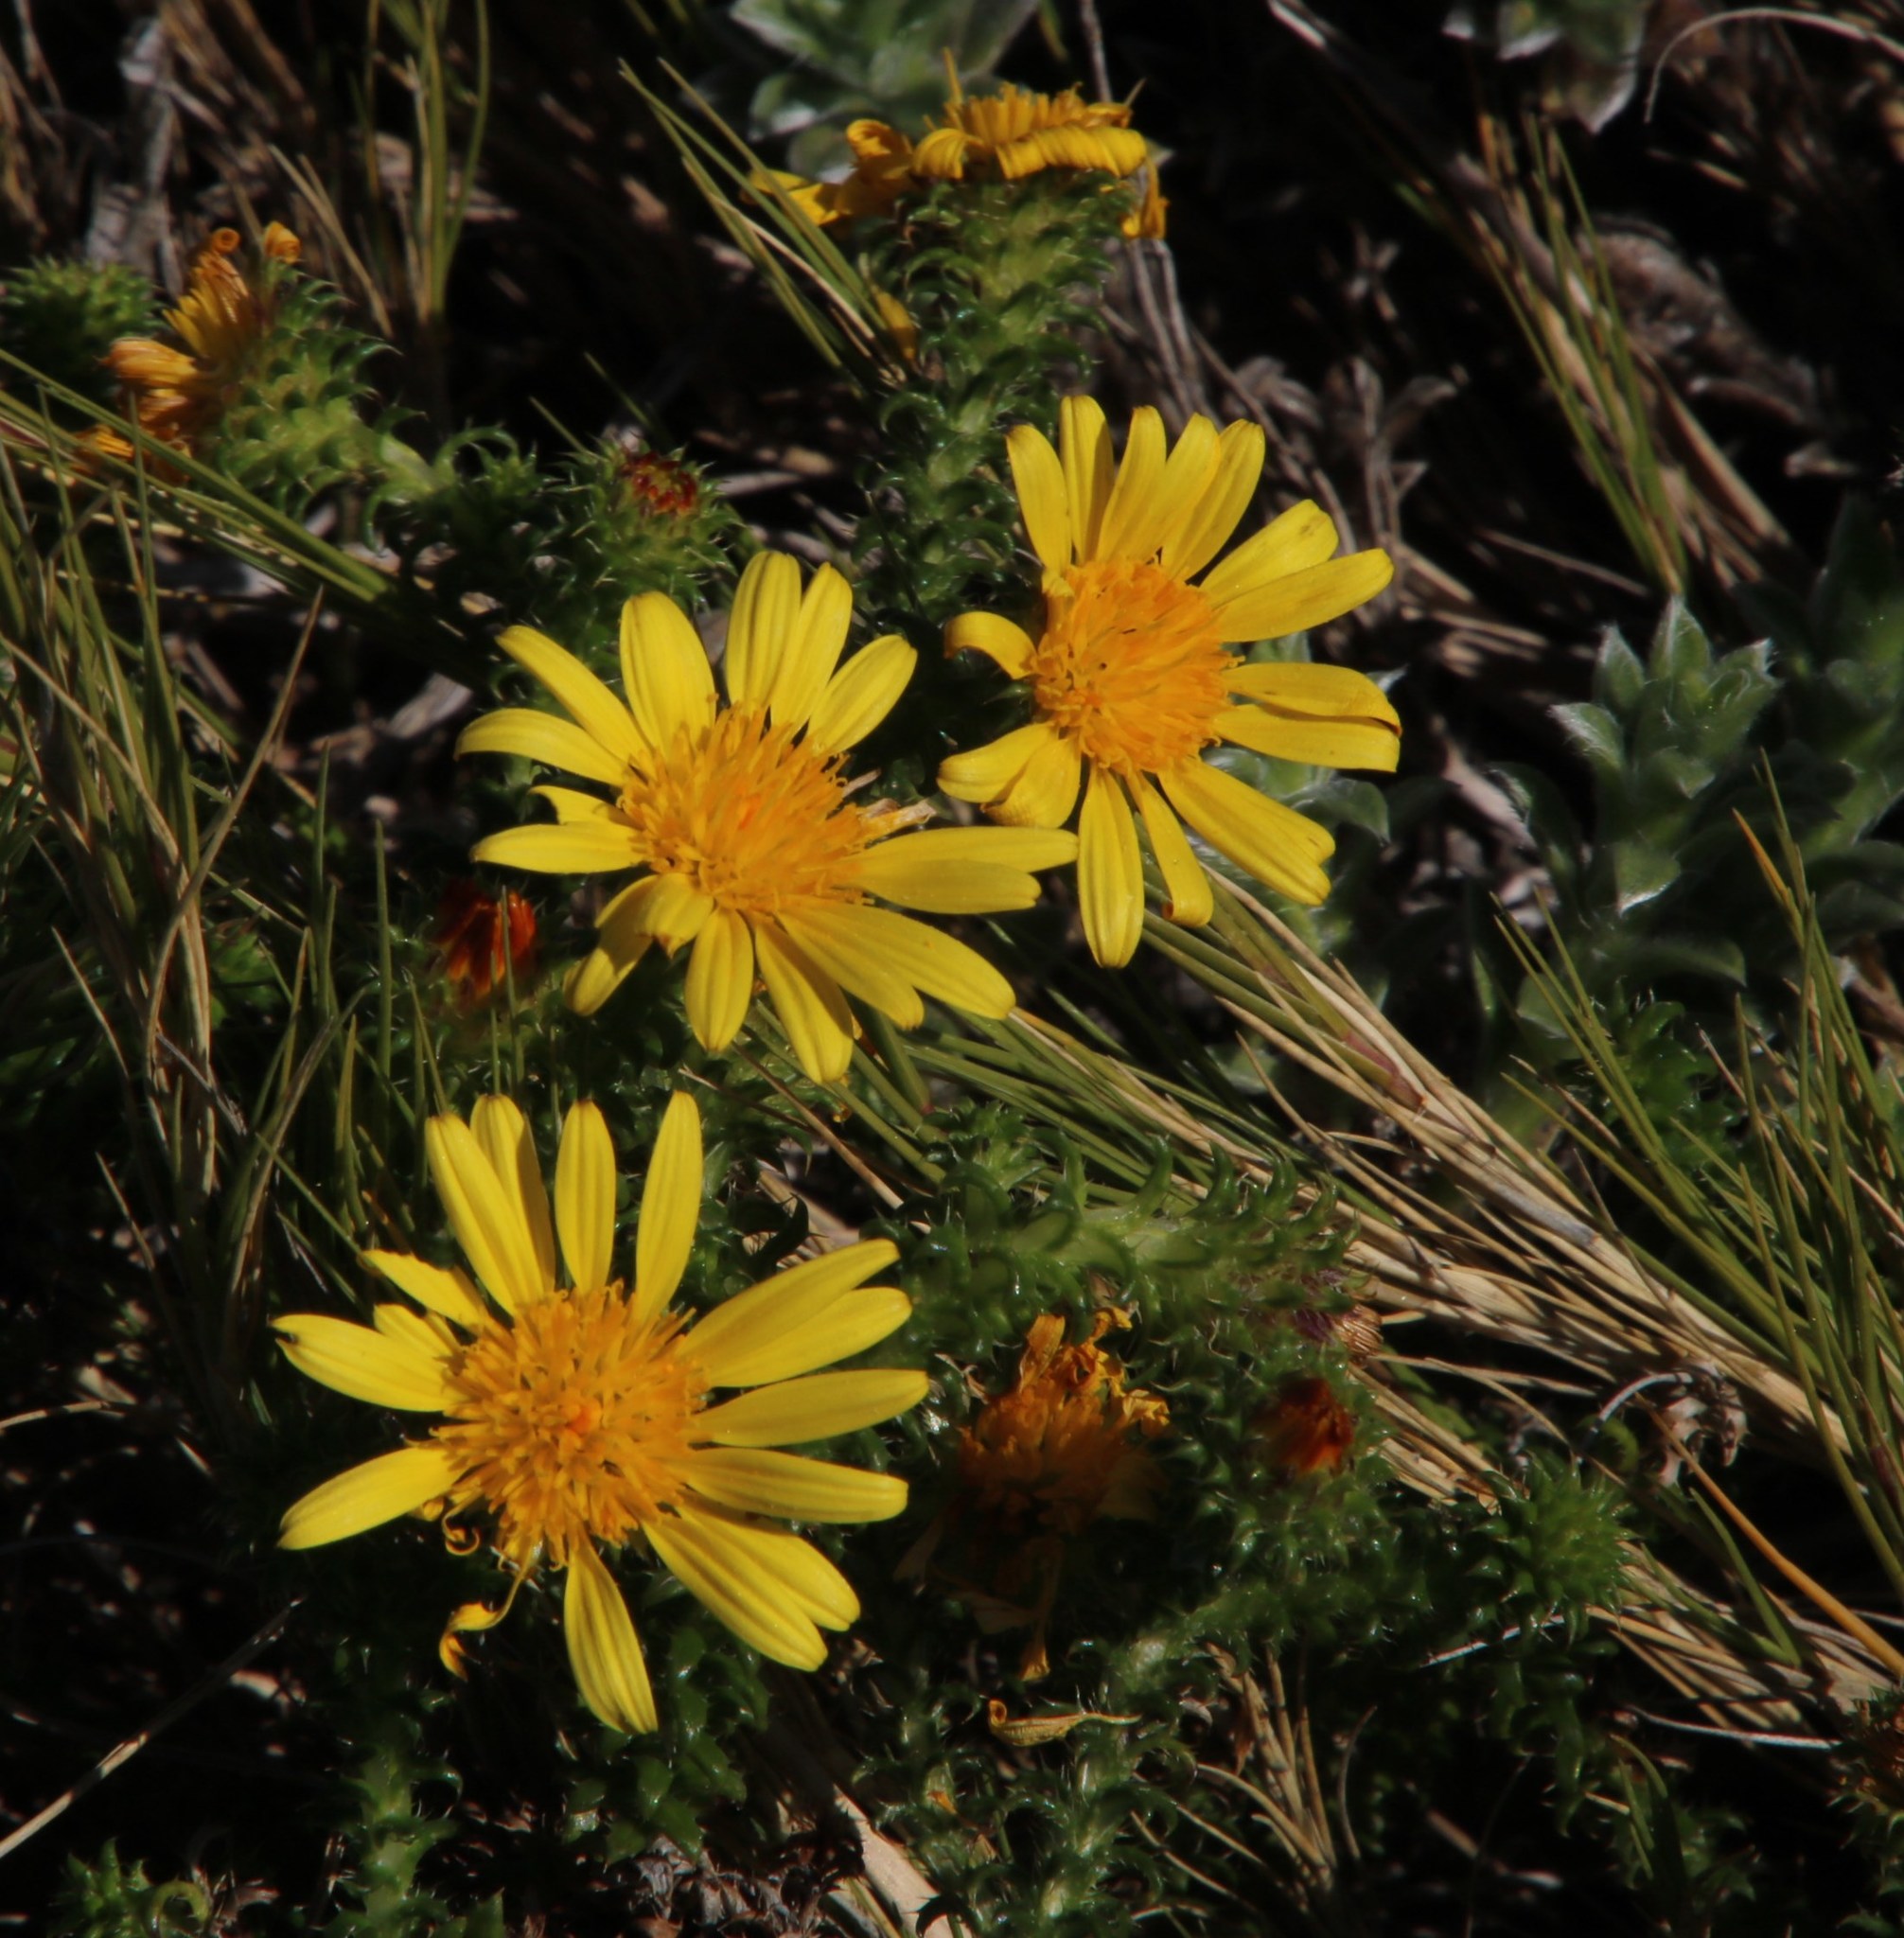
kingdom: Plantae
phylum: Tracheophyta
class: Magnoliopsida
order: Asterales
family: Asteraceae
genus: Cullumia
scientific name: Cullumia decurrens
